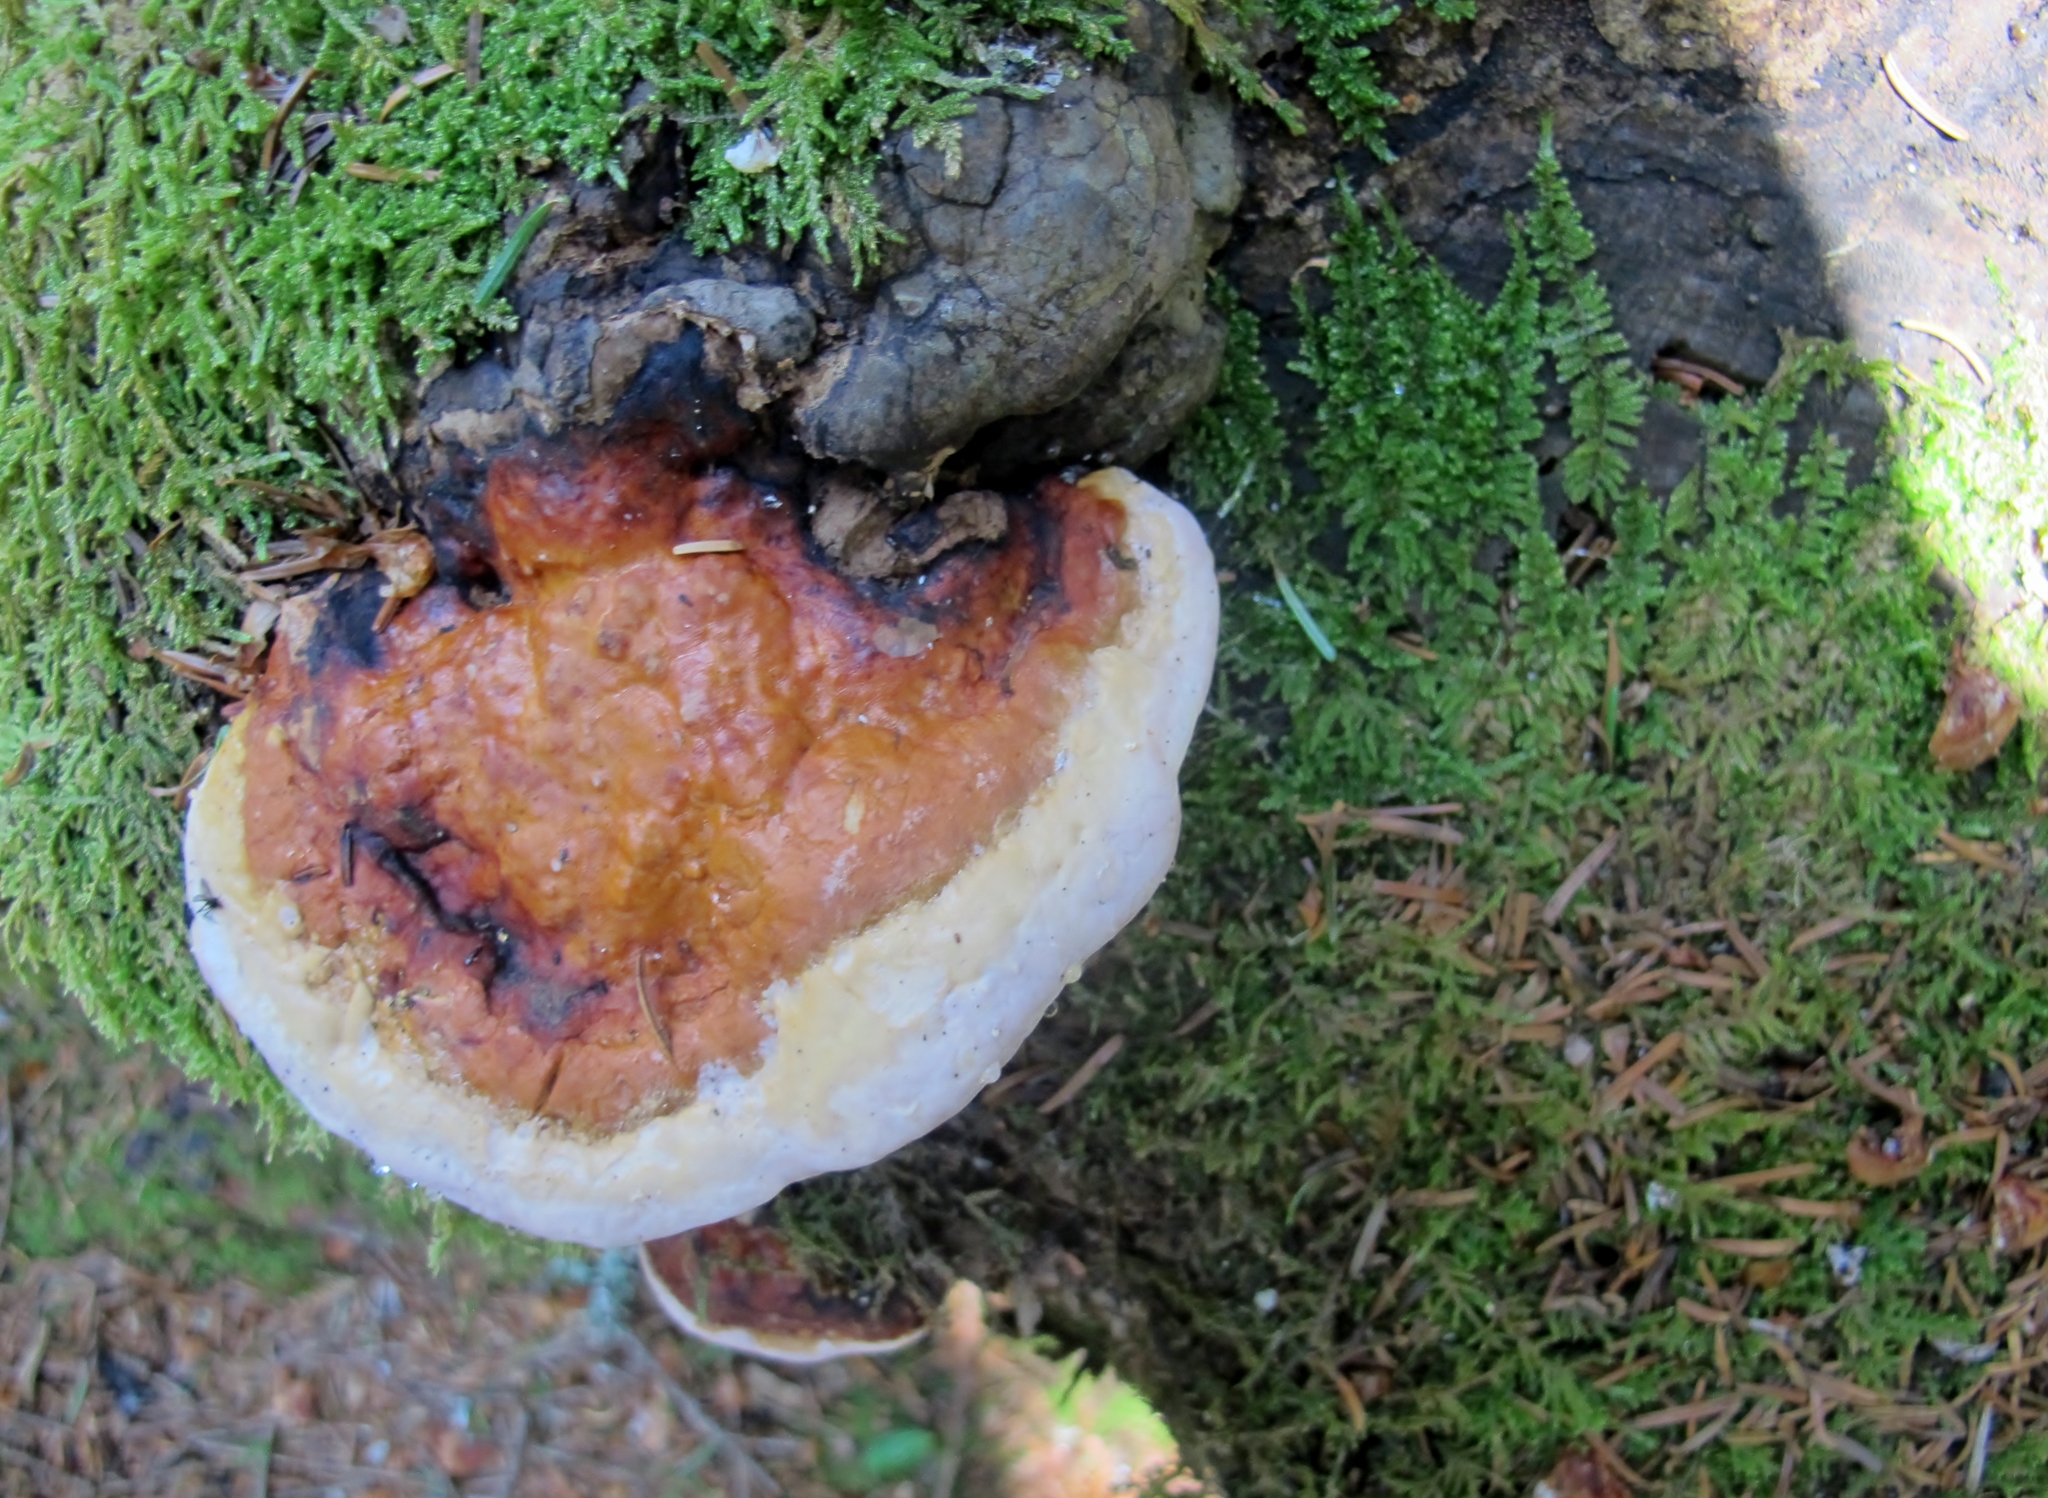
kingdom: Fungi
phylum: Basidiomycota
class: Agaricomycetes
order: Polyporales
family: Polyporaceae
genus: Ganoderma
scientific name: Ganoderma tsugae
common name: Hemlock varnish shelf
